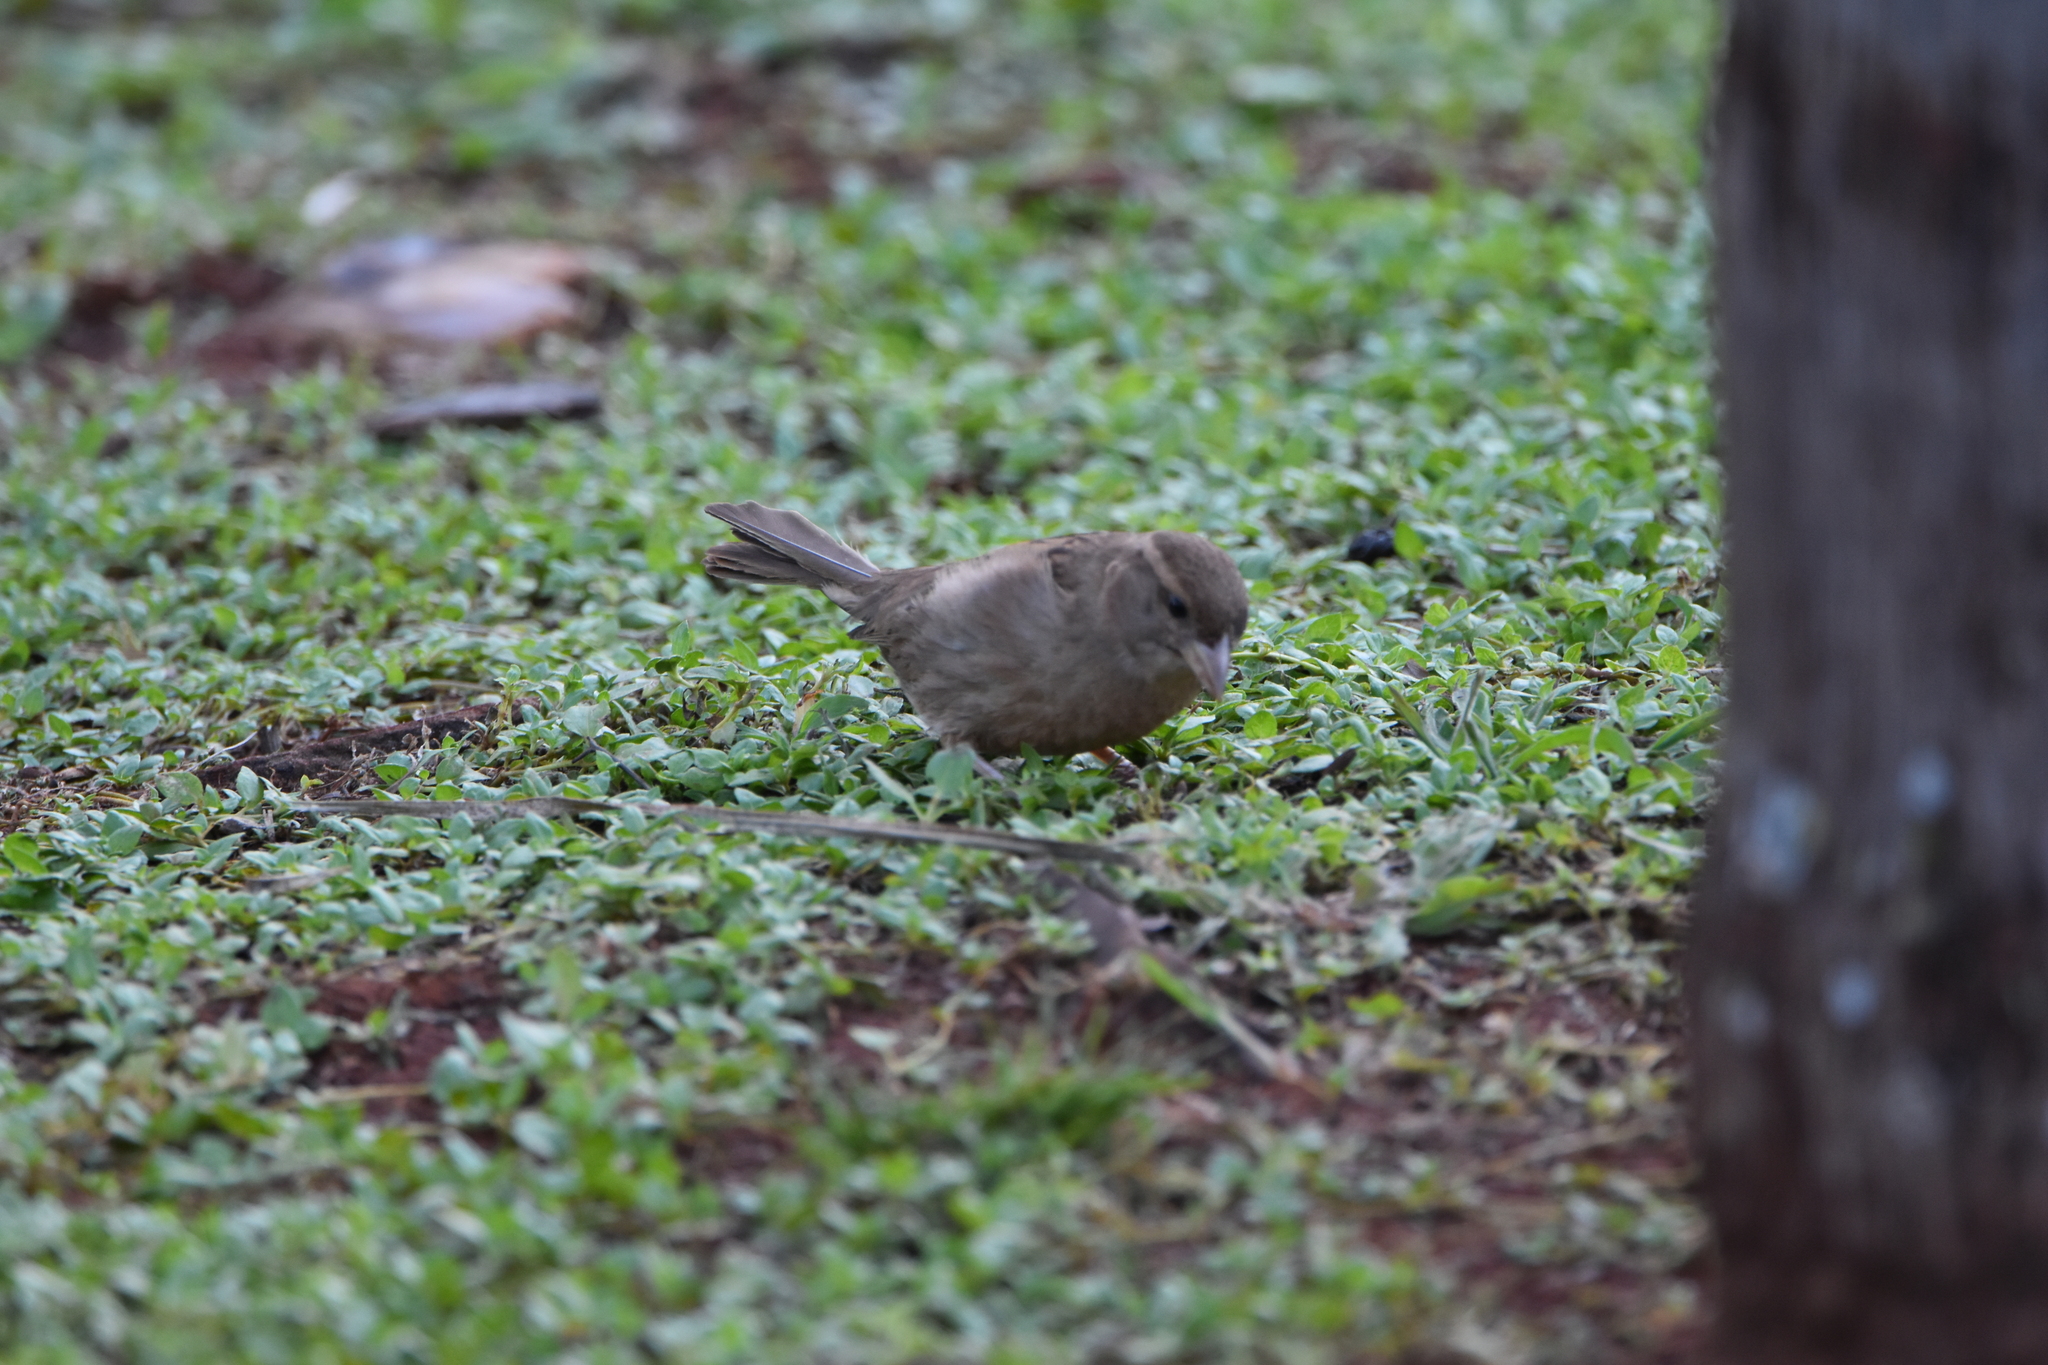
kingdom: Animalia
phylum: Chordata
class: Aves
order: Passeriformes
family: Passeridae
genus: Passer
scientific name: Passer domesticus
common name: House sparrow
